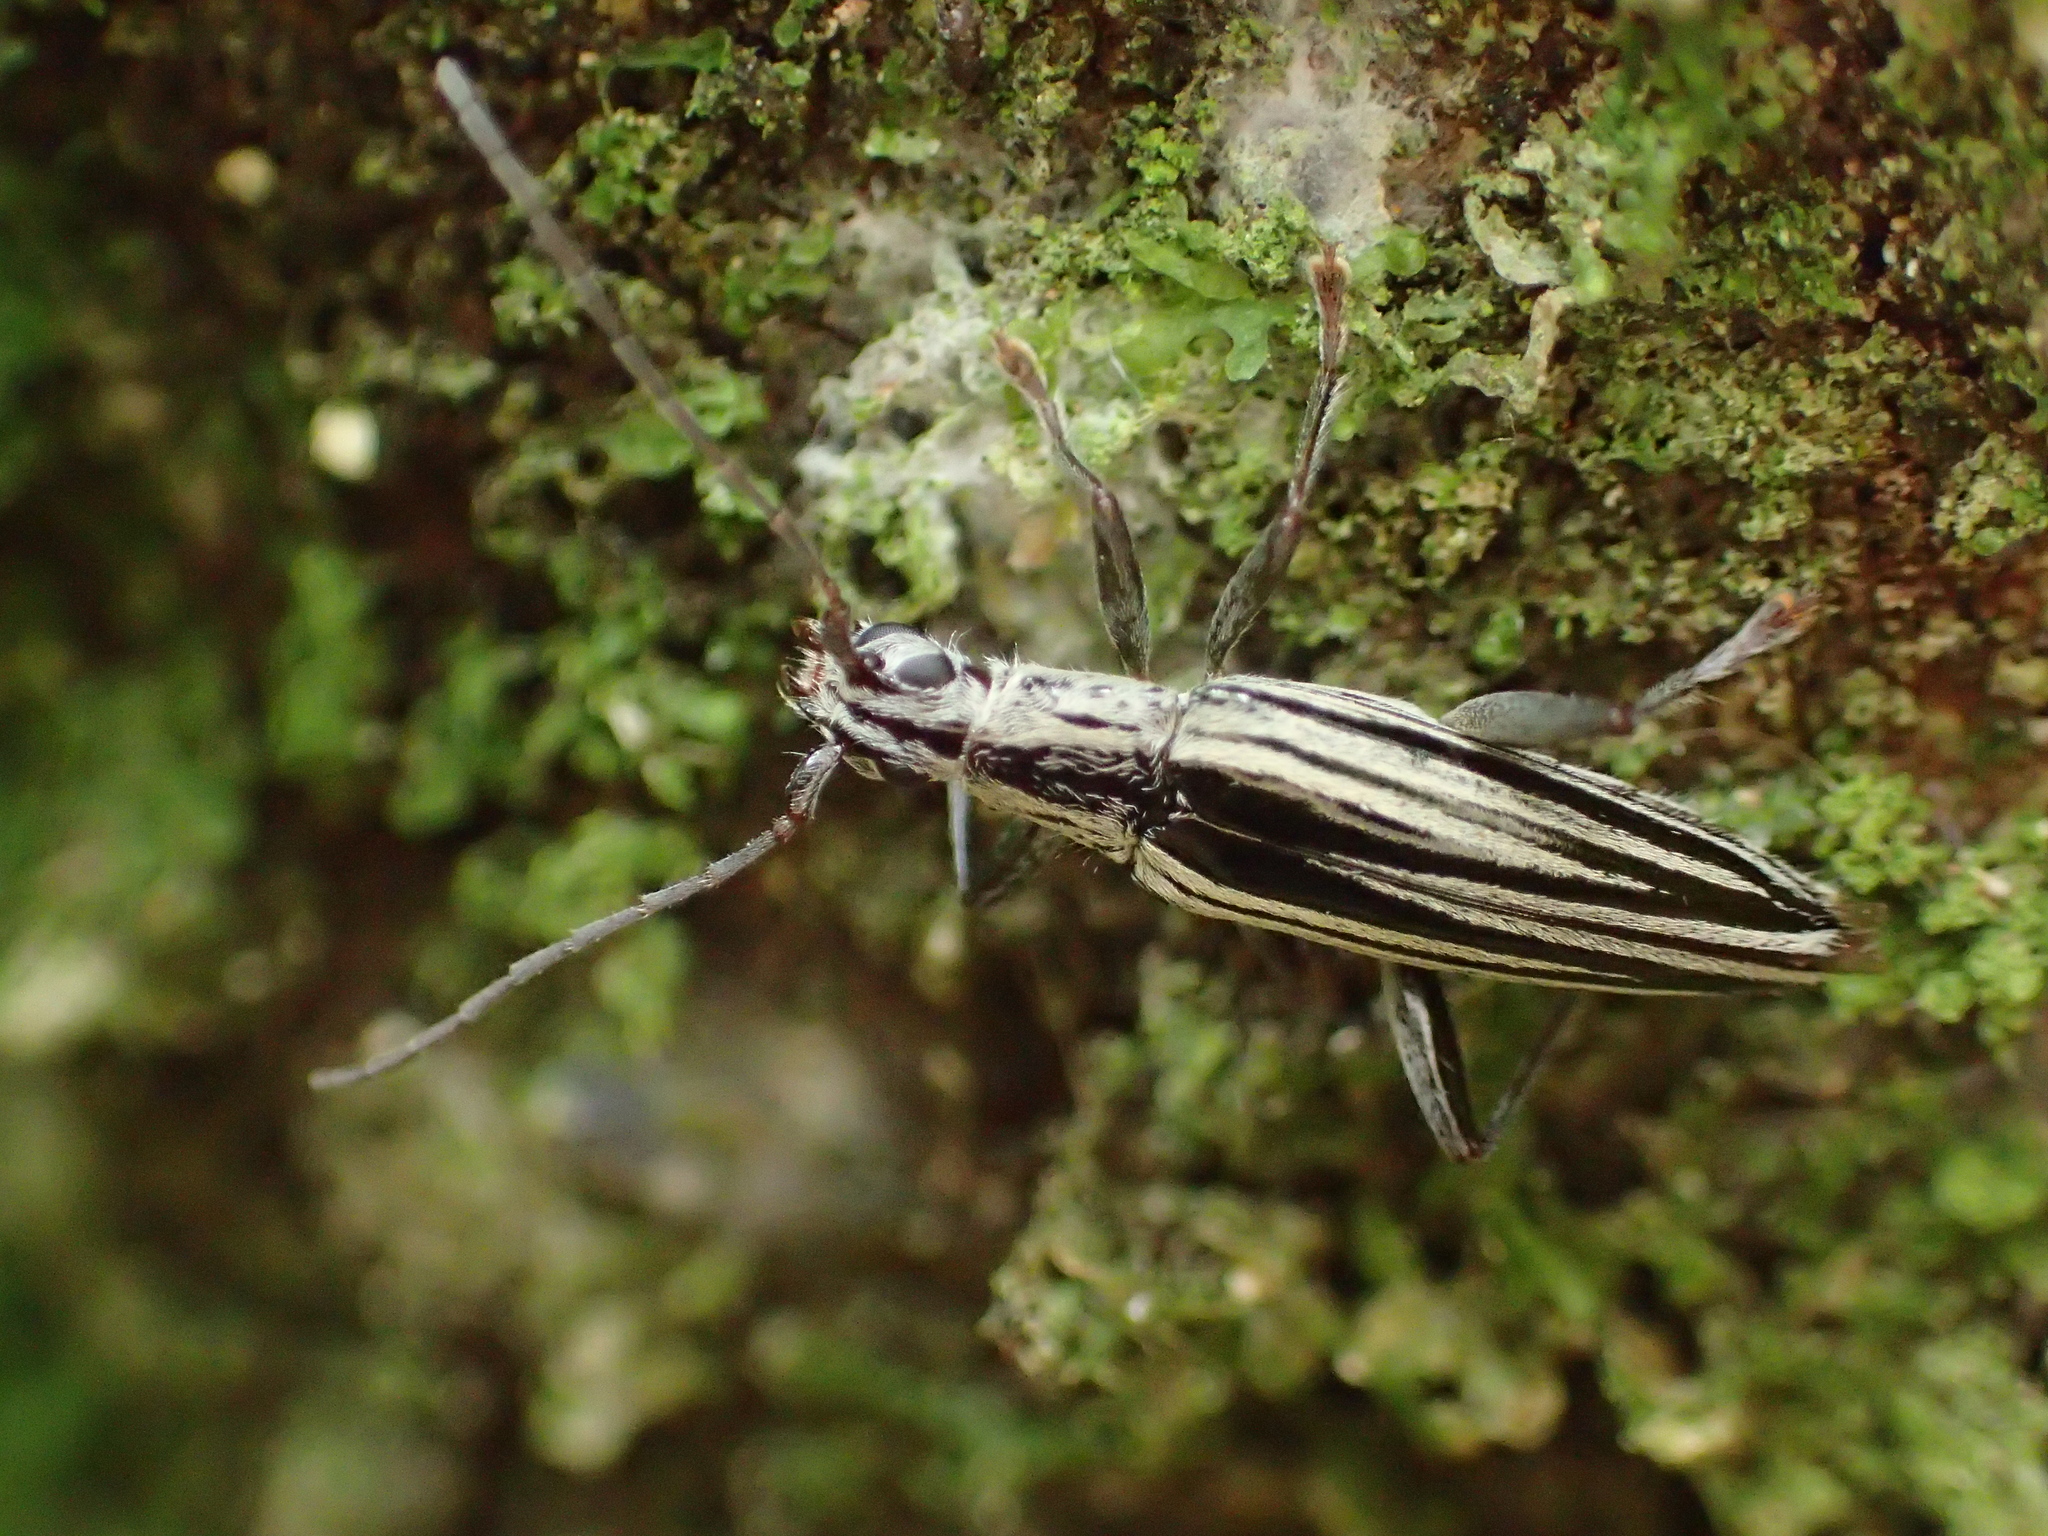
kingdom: Animalia
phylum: Arthropoda
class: Insecta
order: Coleoptera
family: Cerambycidae
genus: Coptomma
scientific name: Coptomma sulcatum
